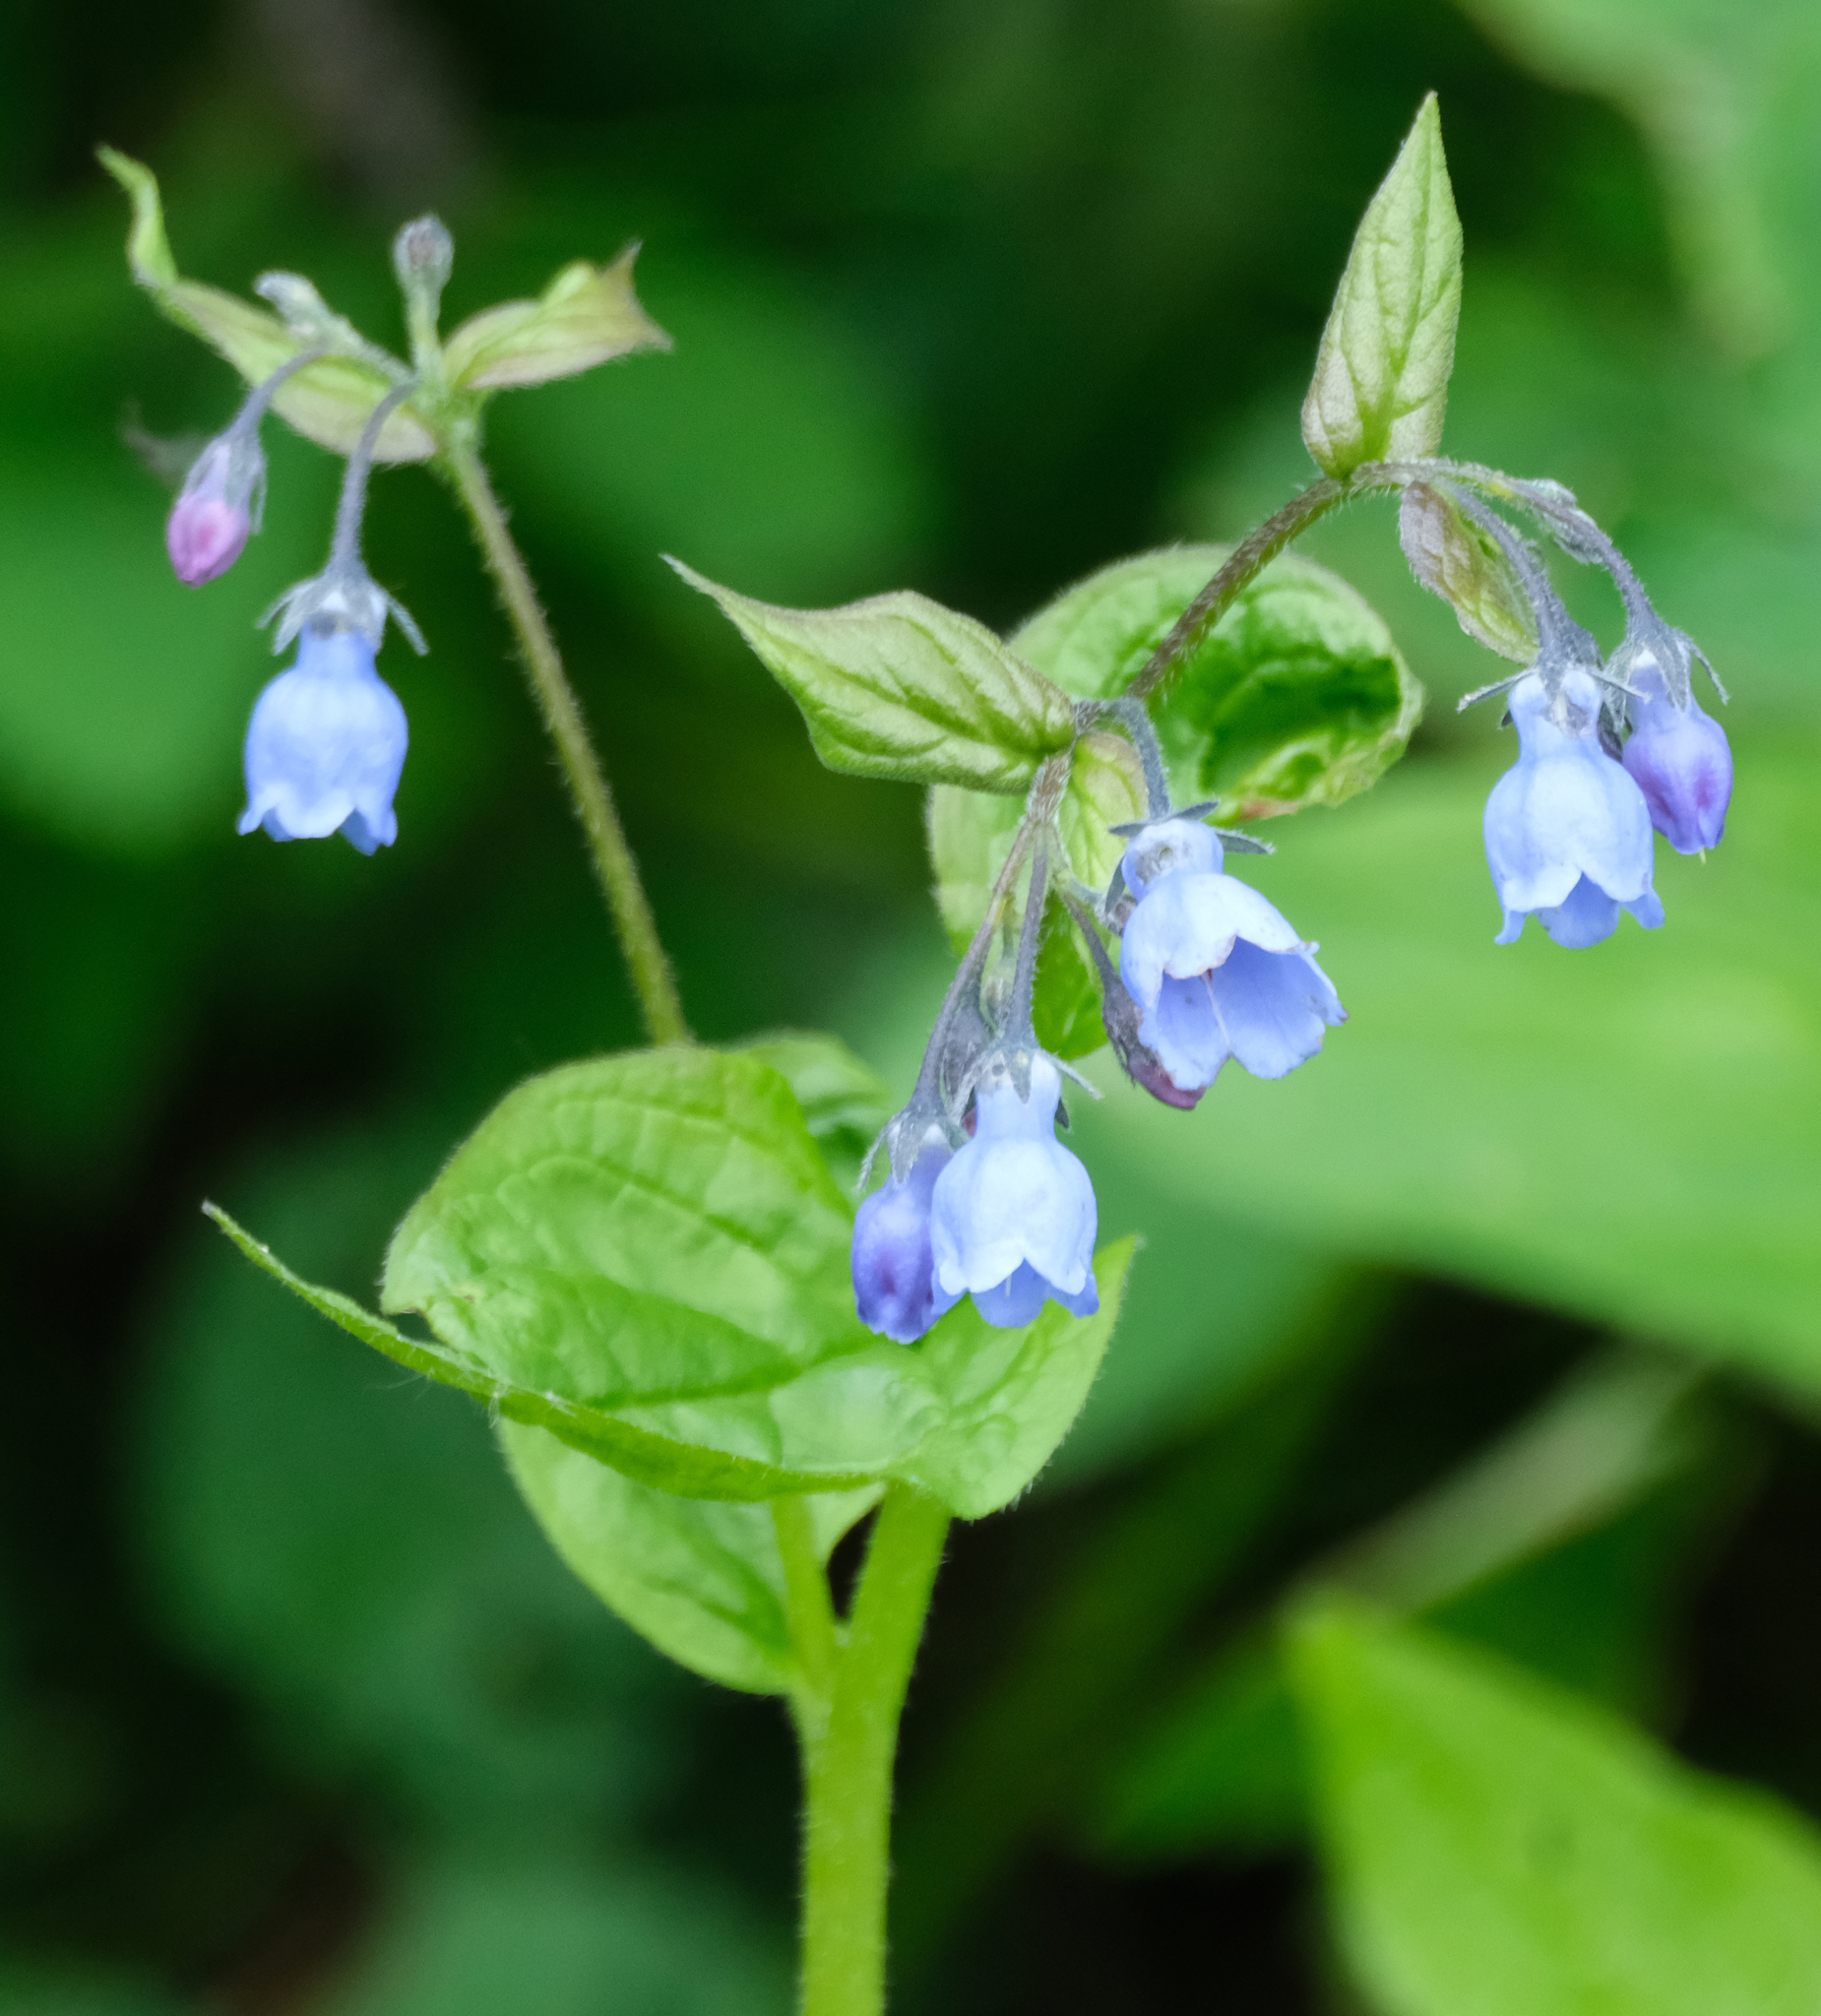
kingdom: Plantae
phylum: Tracheophyta
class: Magnoliopsida
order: Boraginales
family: Boraginaceae
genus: Mertensia
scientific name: Mertensia paniculata
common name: Panicled bluebells
